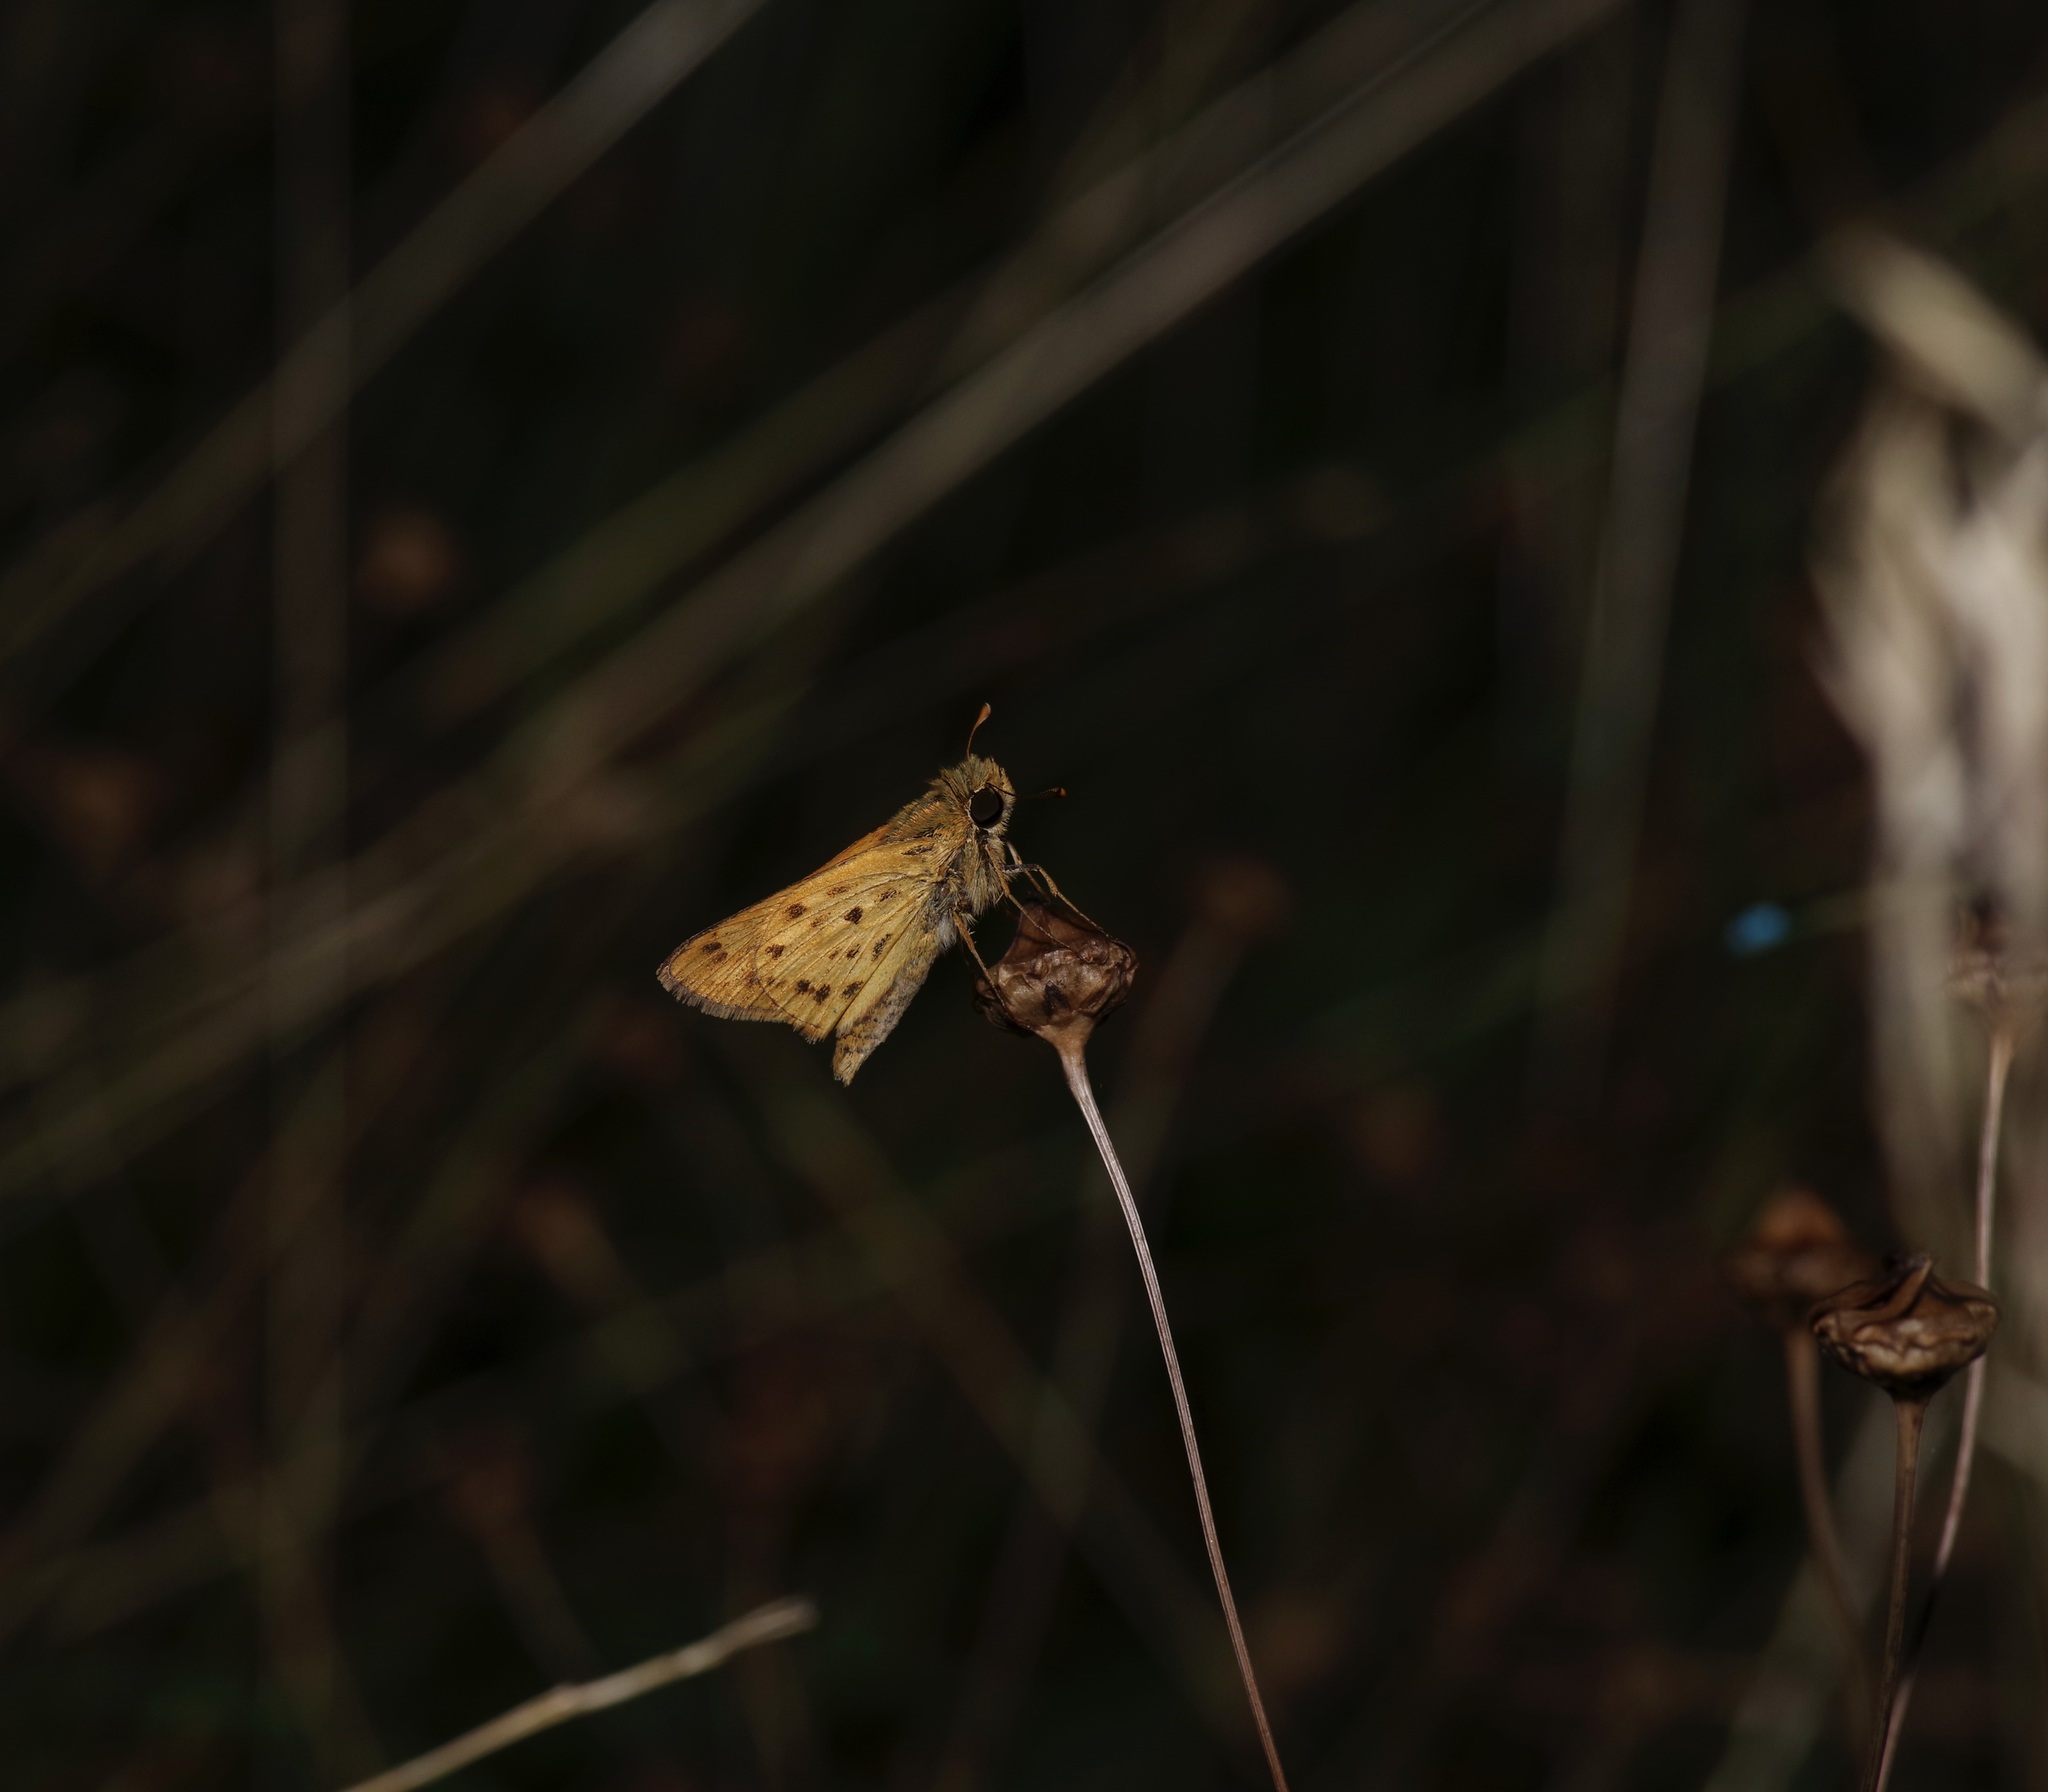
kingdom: Animalia
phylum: Arthropoda
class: Insecta
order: Lepidoptera
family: Hesperiidae
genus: Hylephila
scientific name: Hylephila phyleus
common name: Fiery skipper
